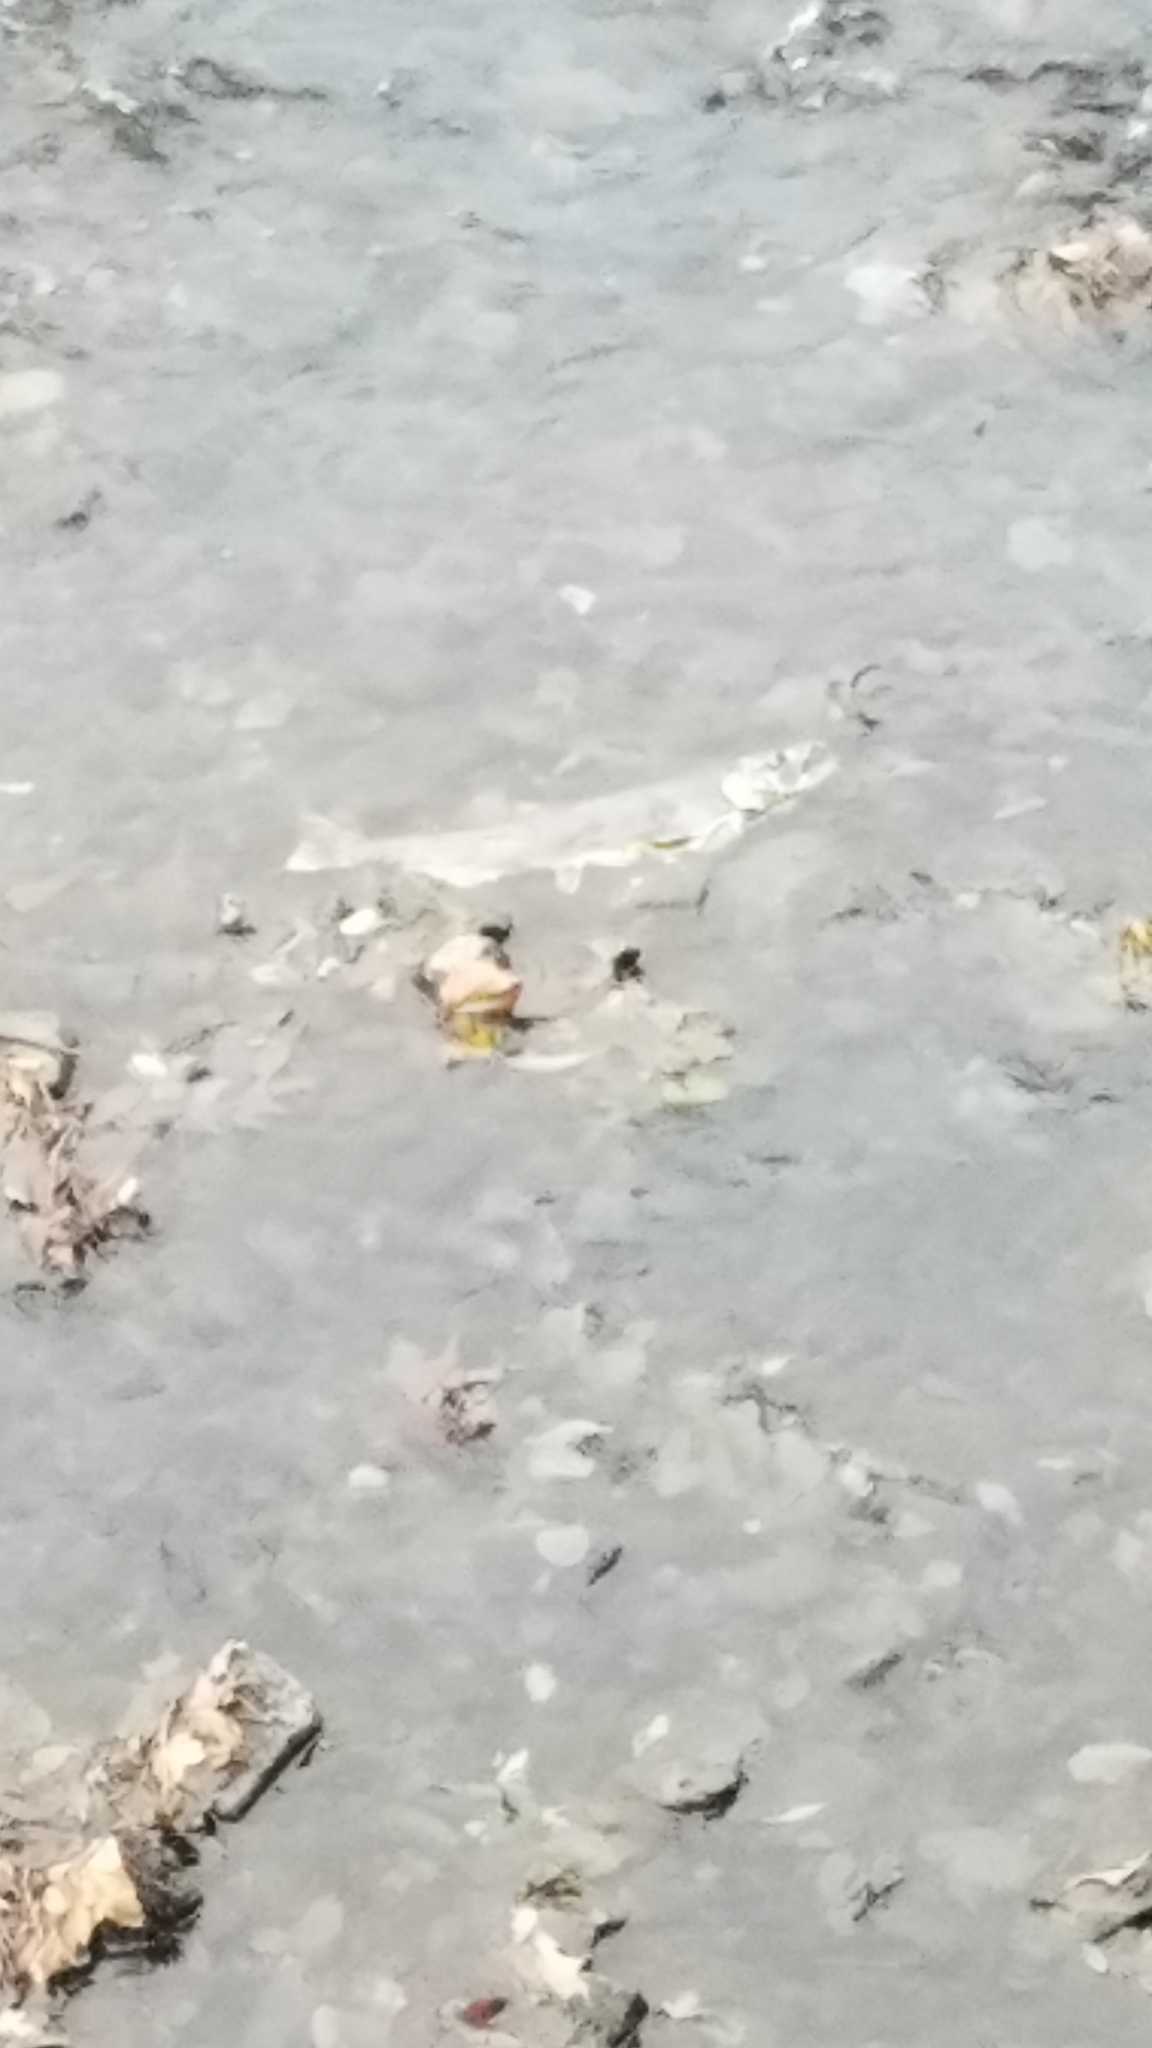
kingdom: Animalia
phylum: Chordata
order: Salmoniformes
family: Salmonidae
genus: Oncorhynchus
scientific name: Oncorhynchus tshawytscha
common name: Chinook salmon
